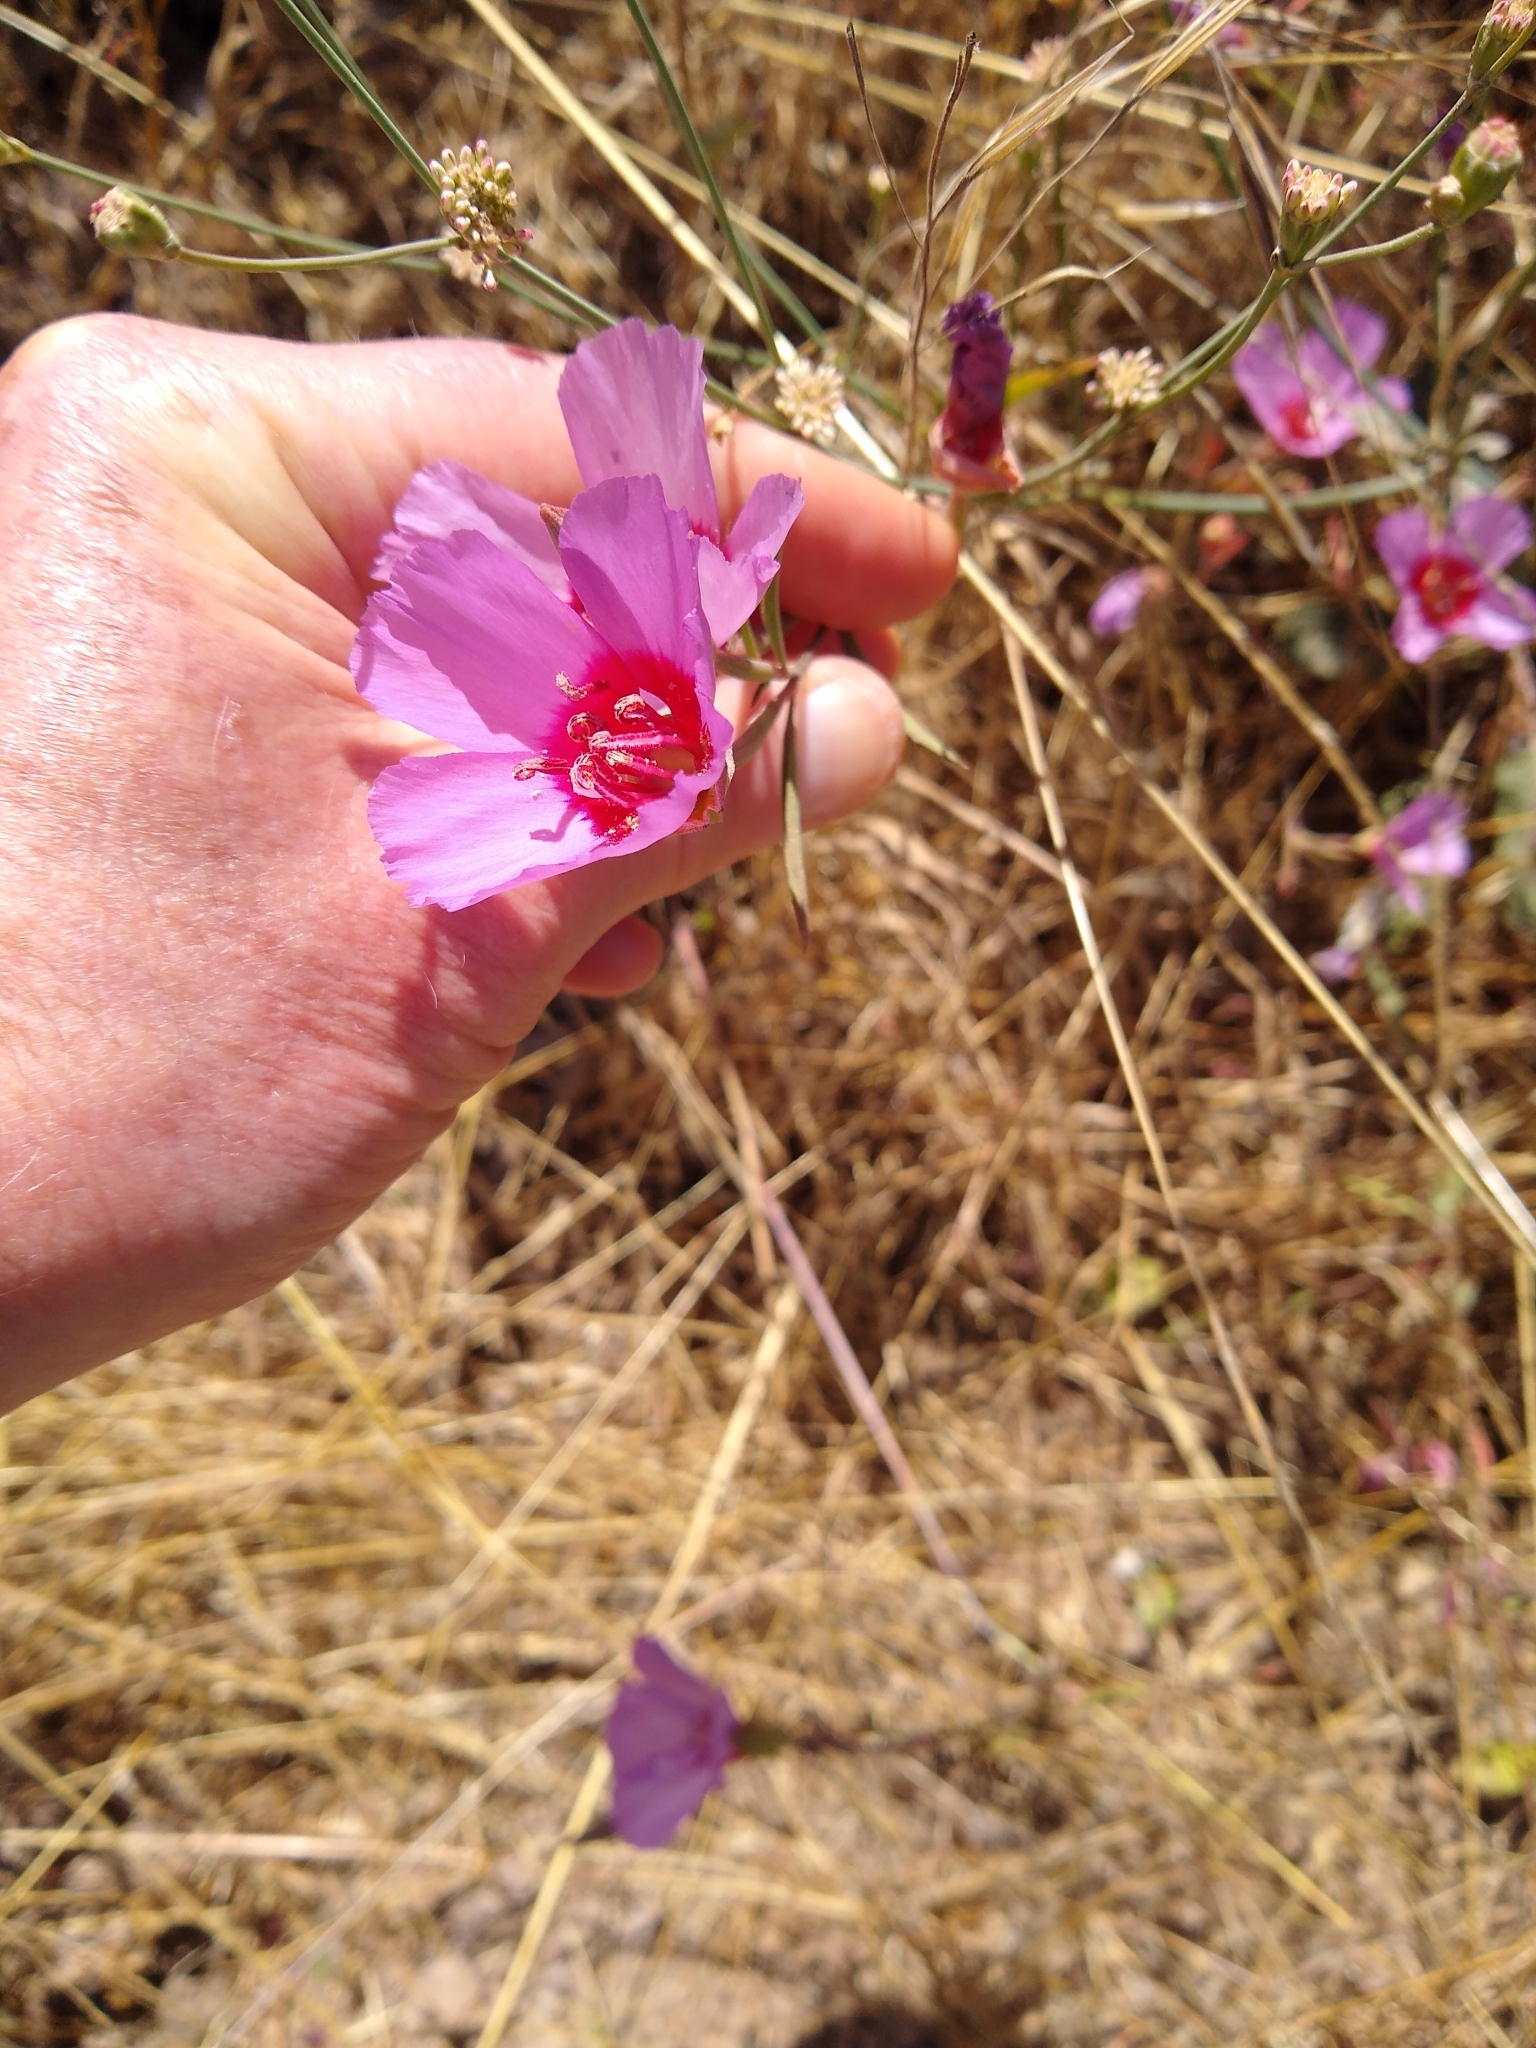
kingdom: Plantae
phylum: Tracheophyta
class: Magnoliopsida
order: Myrtales
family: Onagraceae
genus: Clarkia
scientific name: Clarkia rubicunda
